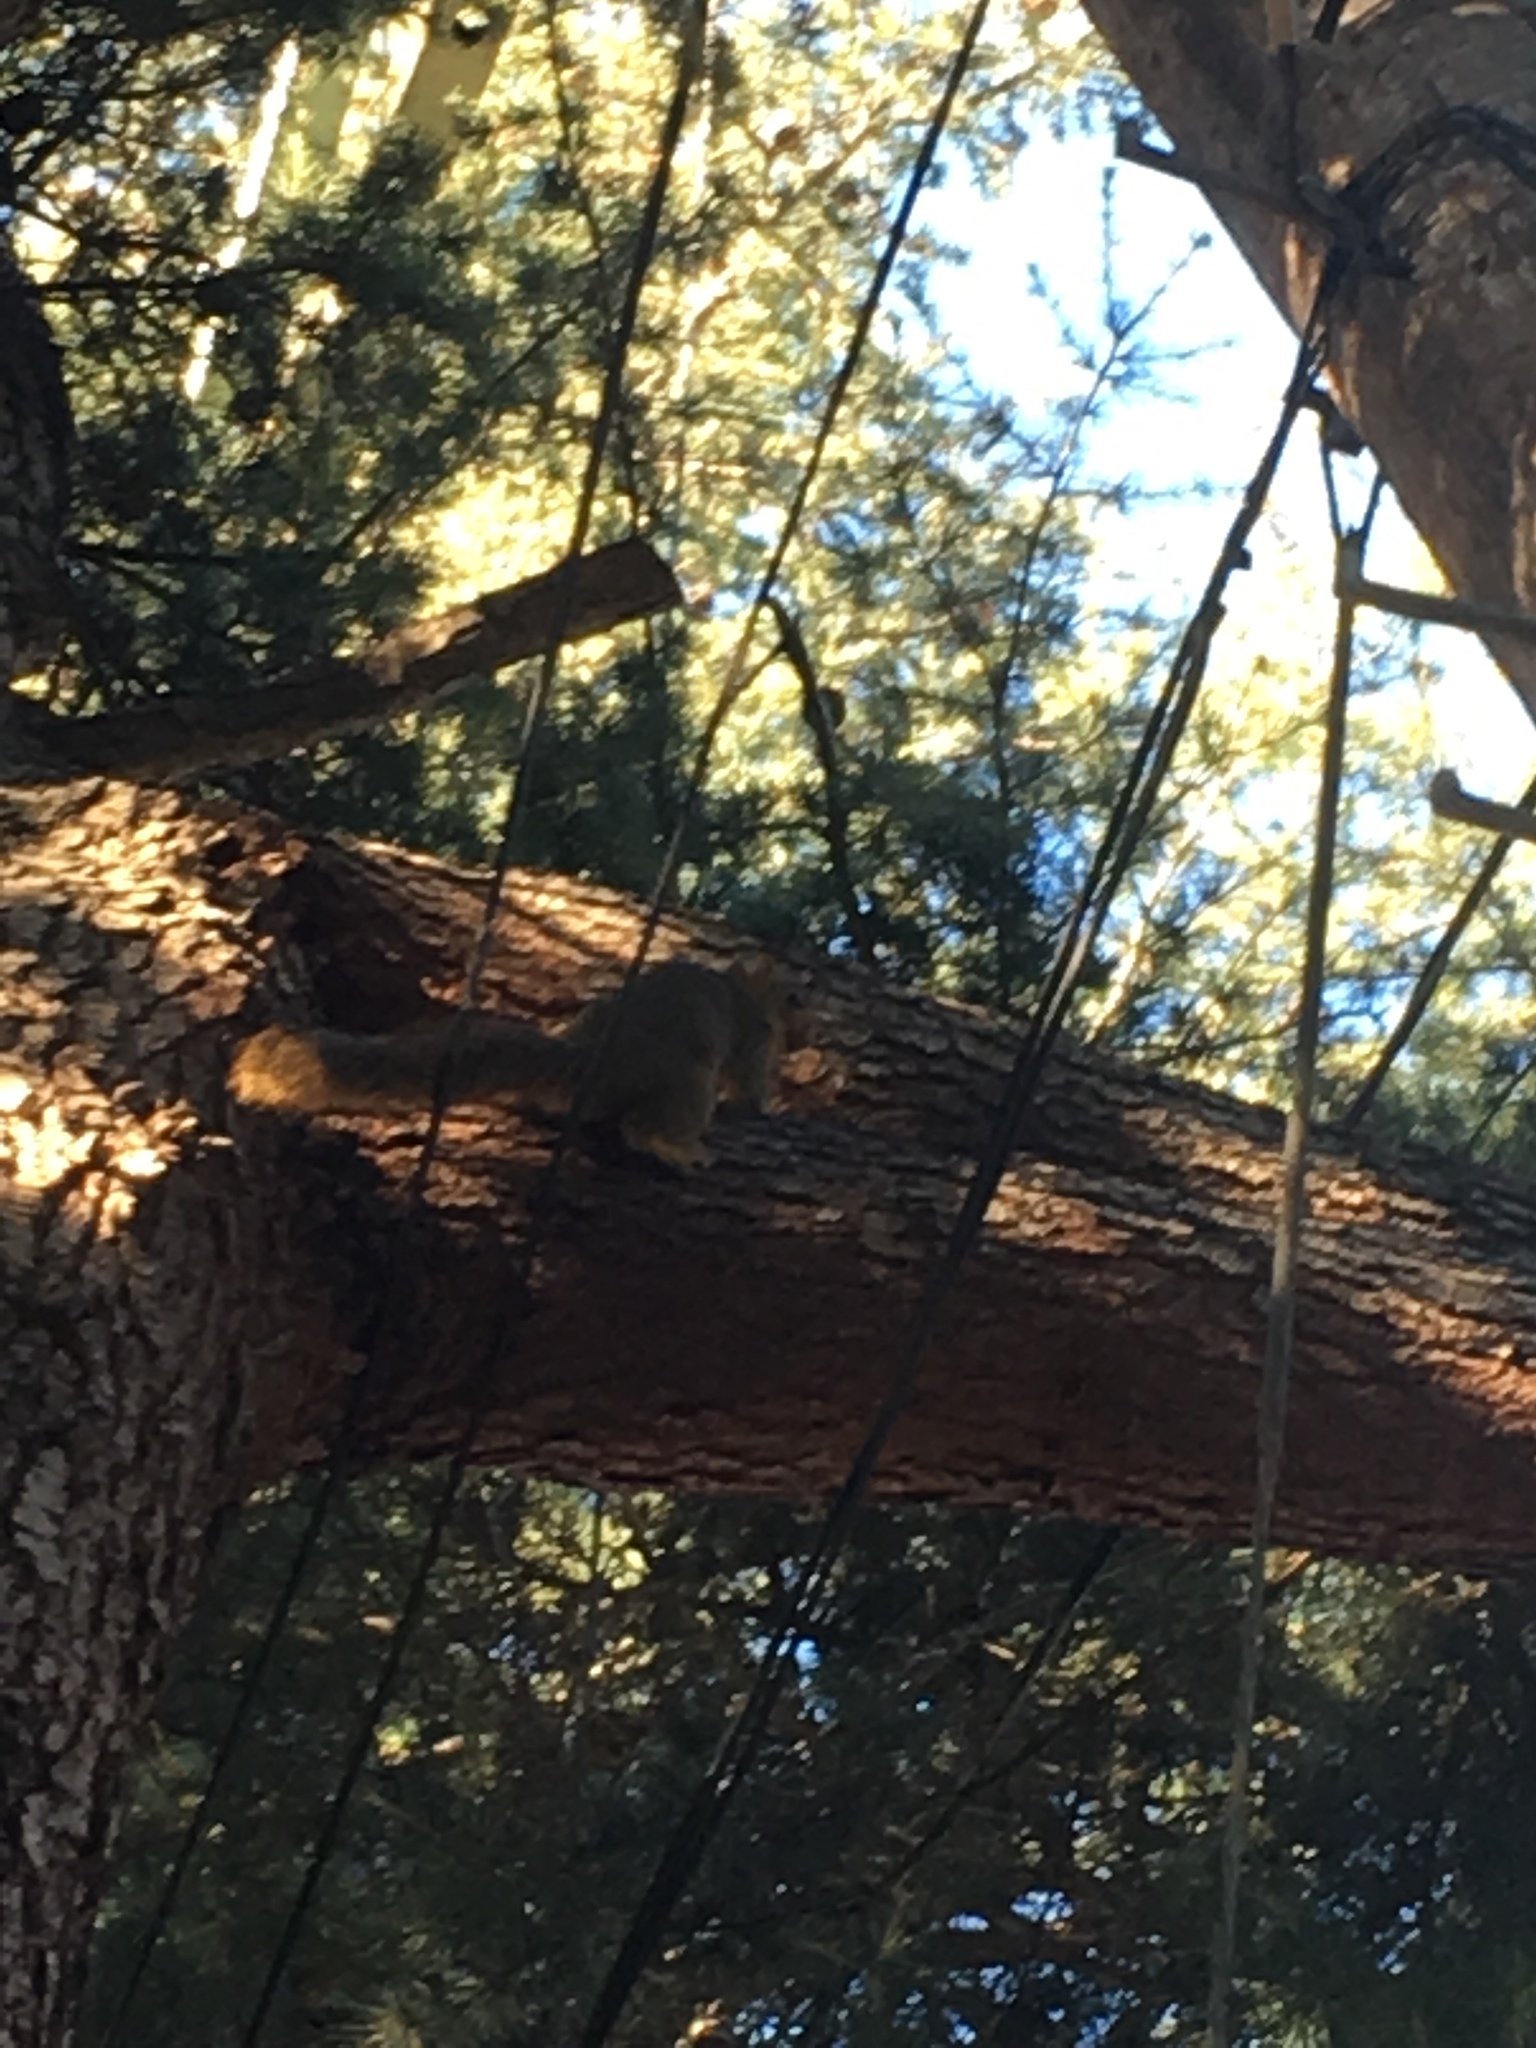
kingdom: Animalia
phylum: Chordata
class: Mammalia
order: Rodentia
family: Sciuridae
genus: Sciurus
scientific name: Sciurus niger
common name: Fox squirrel
